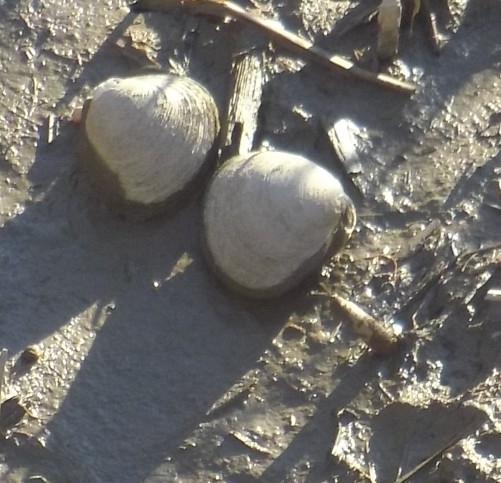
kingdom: Animalia
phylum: Mollusca
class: Bivalvia
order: Venerida
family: Cyrenidae
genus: Polymesoda
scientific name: Polymesoda caroliniana
